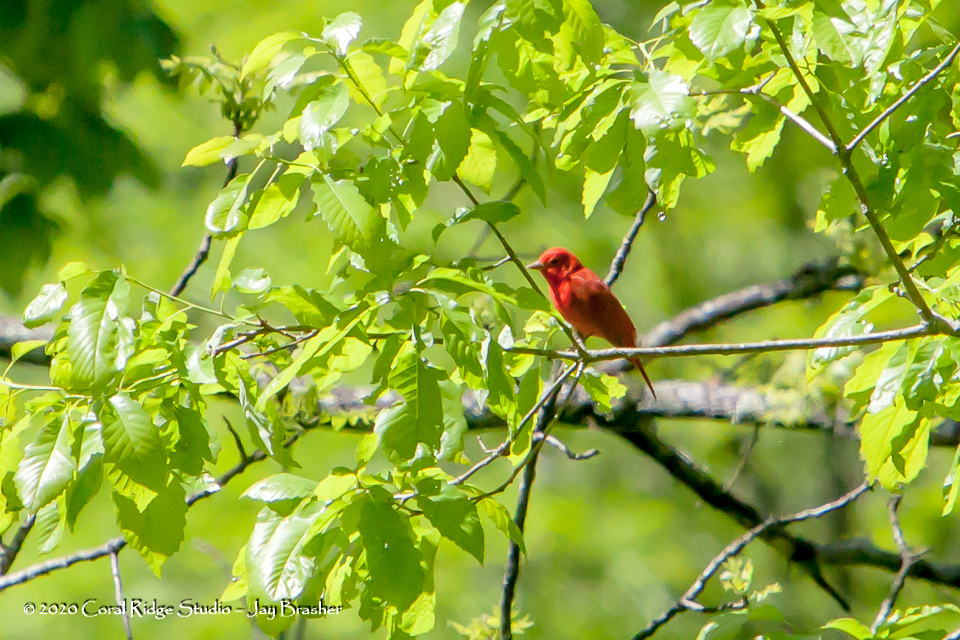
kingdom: Animalia
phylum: Chordata
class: Aves
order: Passeriformes
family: Cardinalidae
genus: Piranga
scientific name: Piranga rubra
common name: Summer tanager
